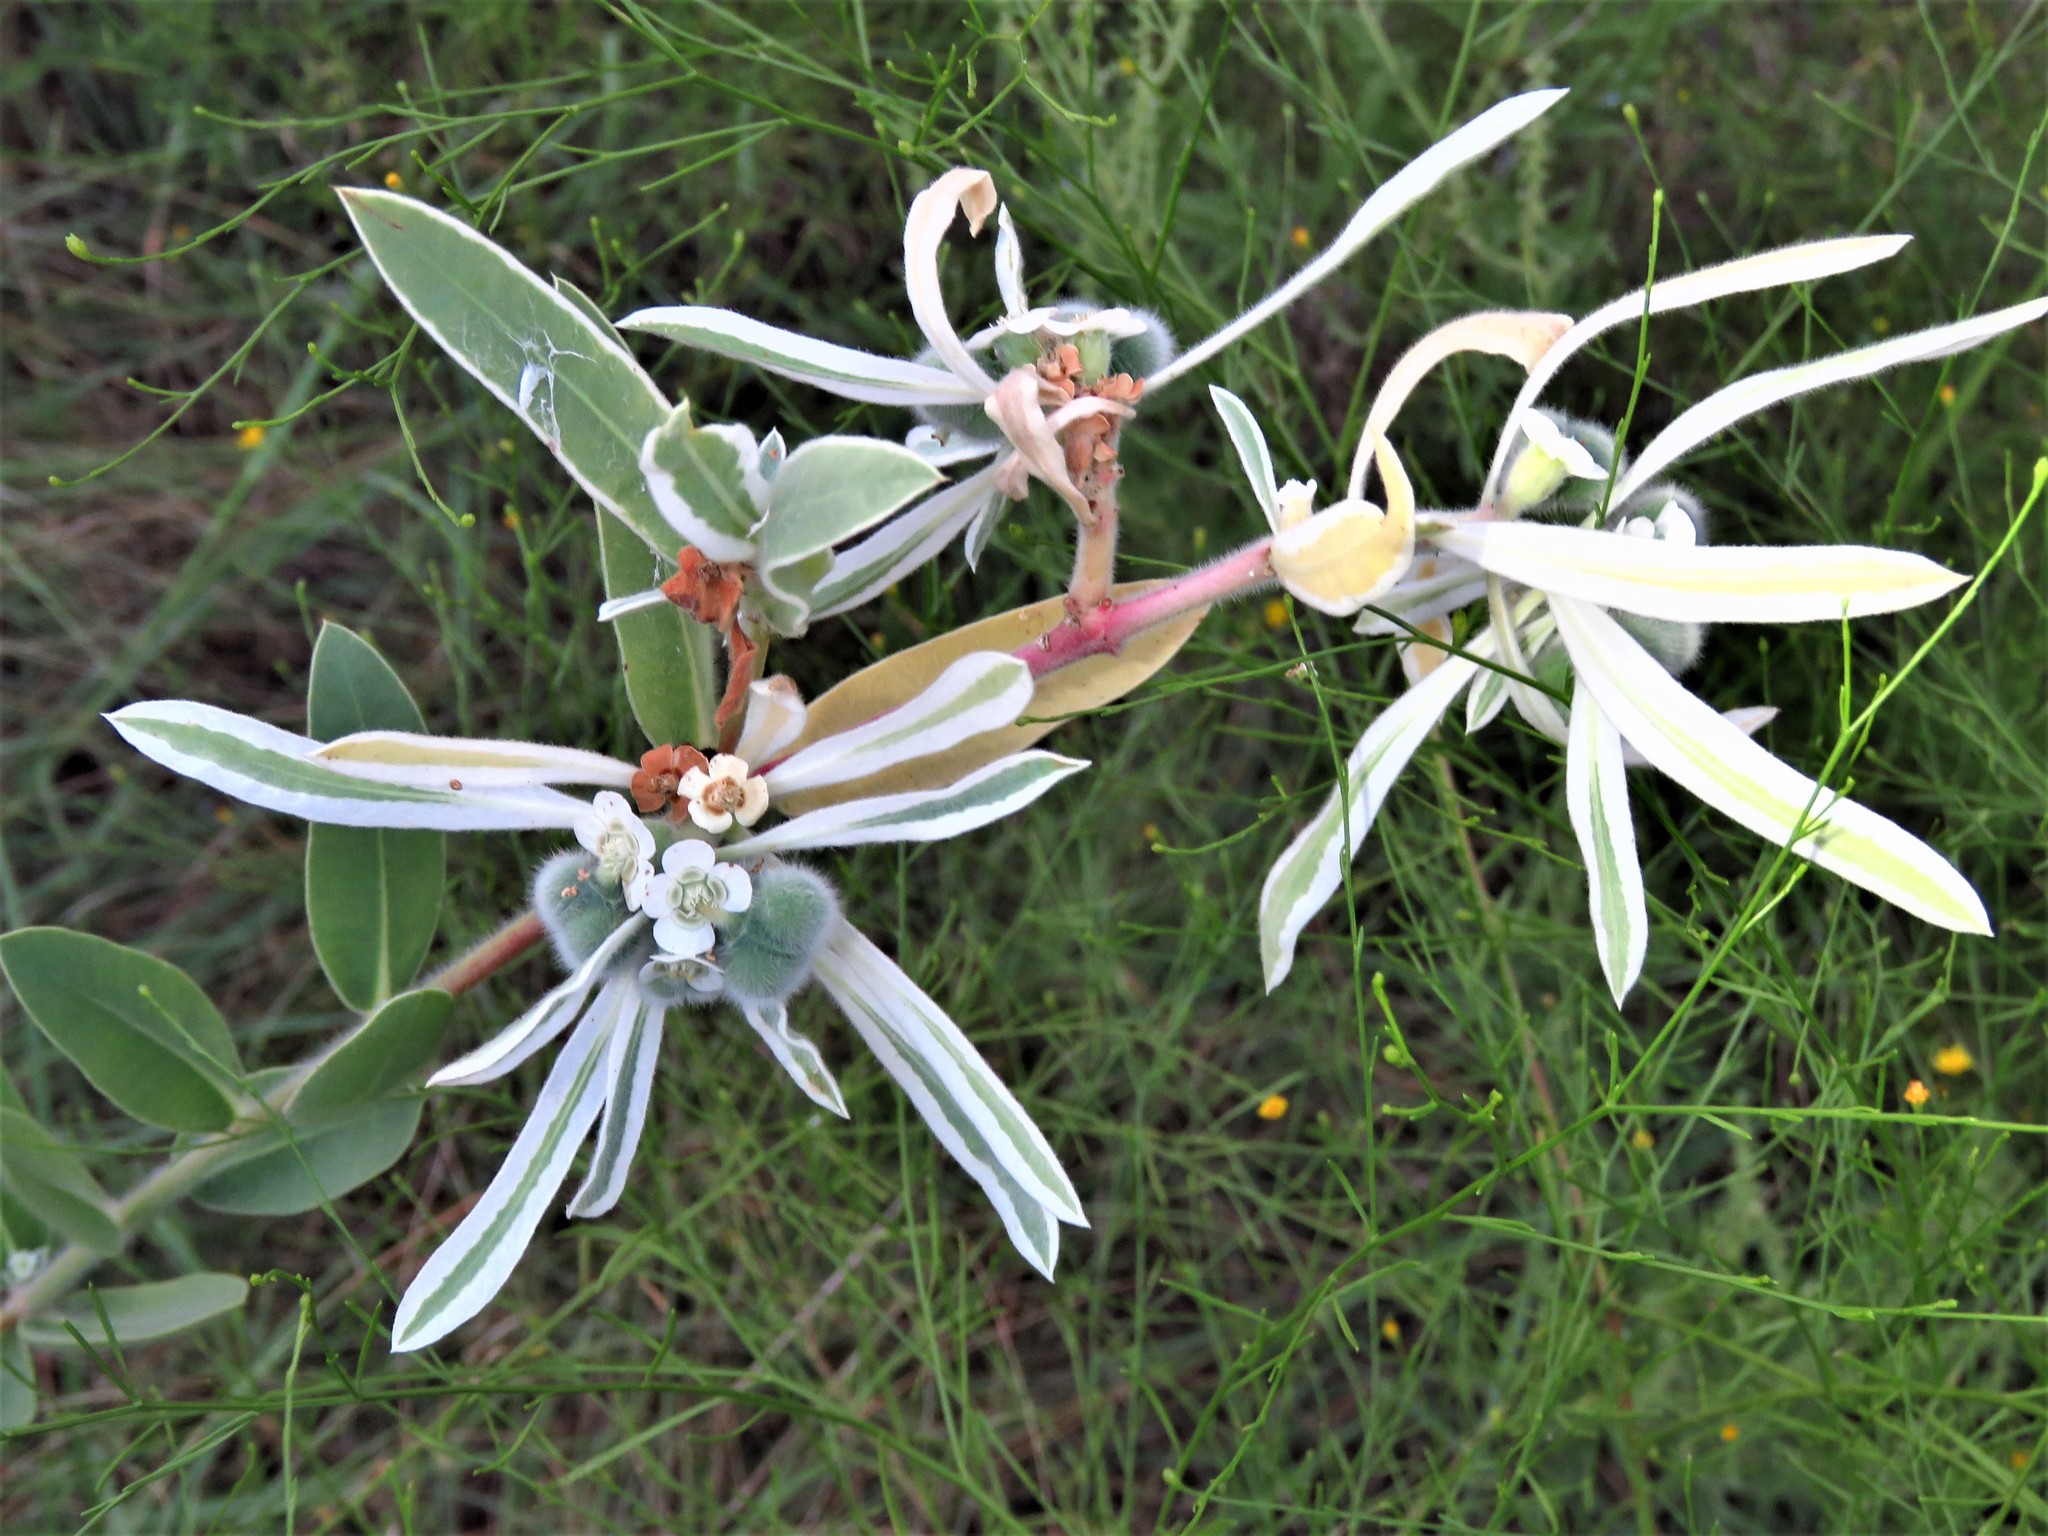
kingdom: Plantae
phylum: Tracheophyta
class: Magnoliopsida
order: Malpighiales
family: Euphorbiaceae
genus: Euphorbia
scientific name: Euphorbia bicolor
